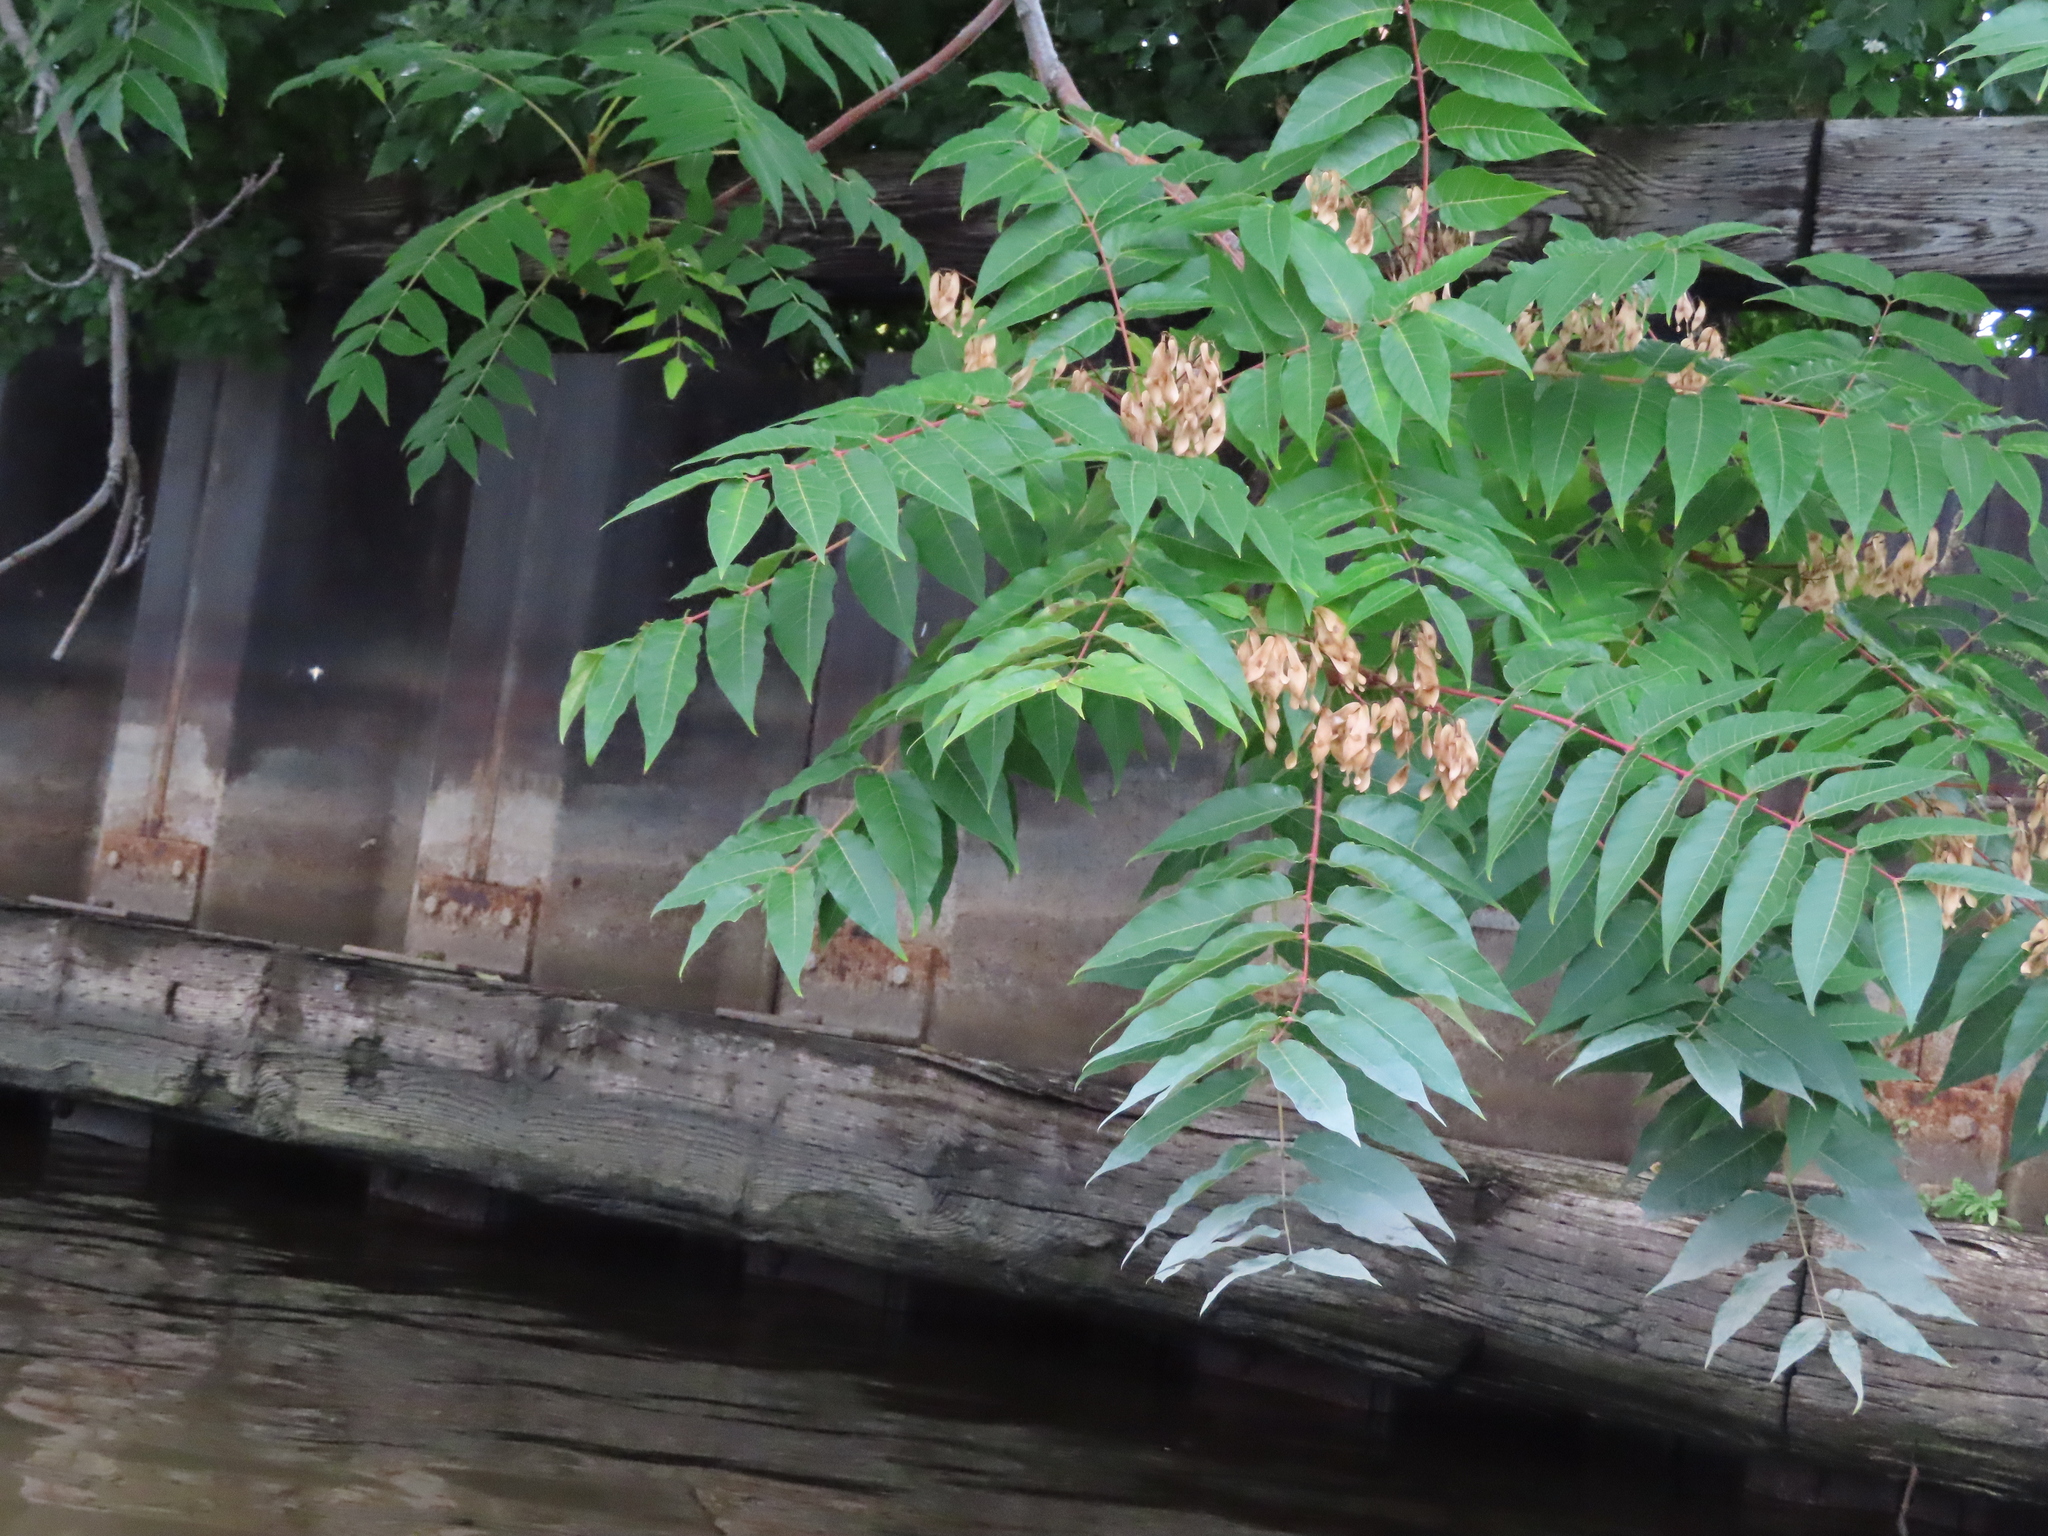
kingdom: Plantae
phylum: Tracheophyta
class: Magnoliopsida
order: Sapindales
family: Simaroubaceae
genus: Ailanthus
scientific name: Ailanthus altissima
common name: Tree-of-heaven
